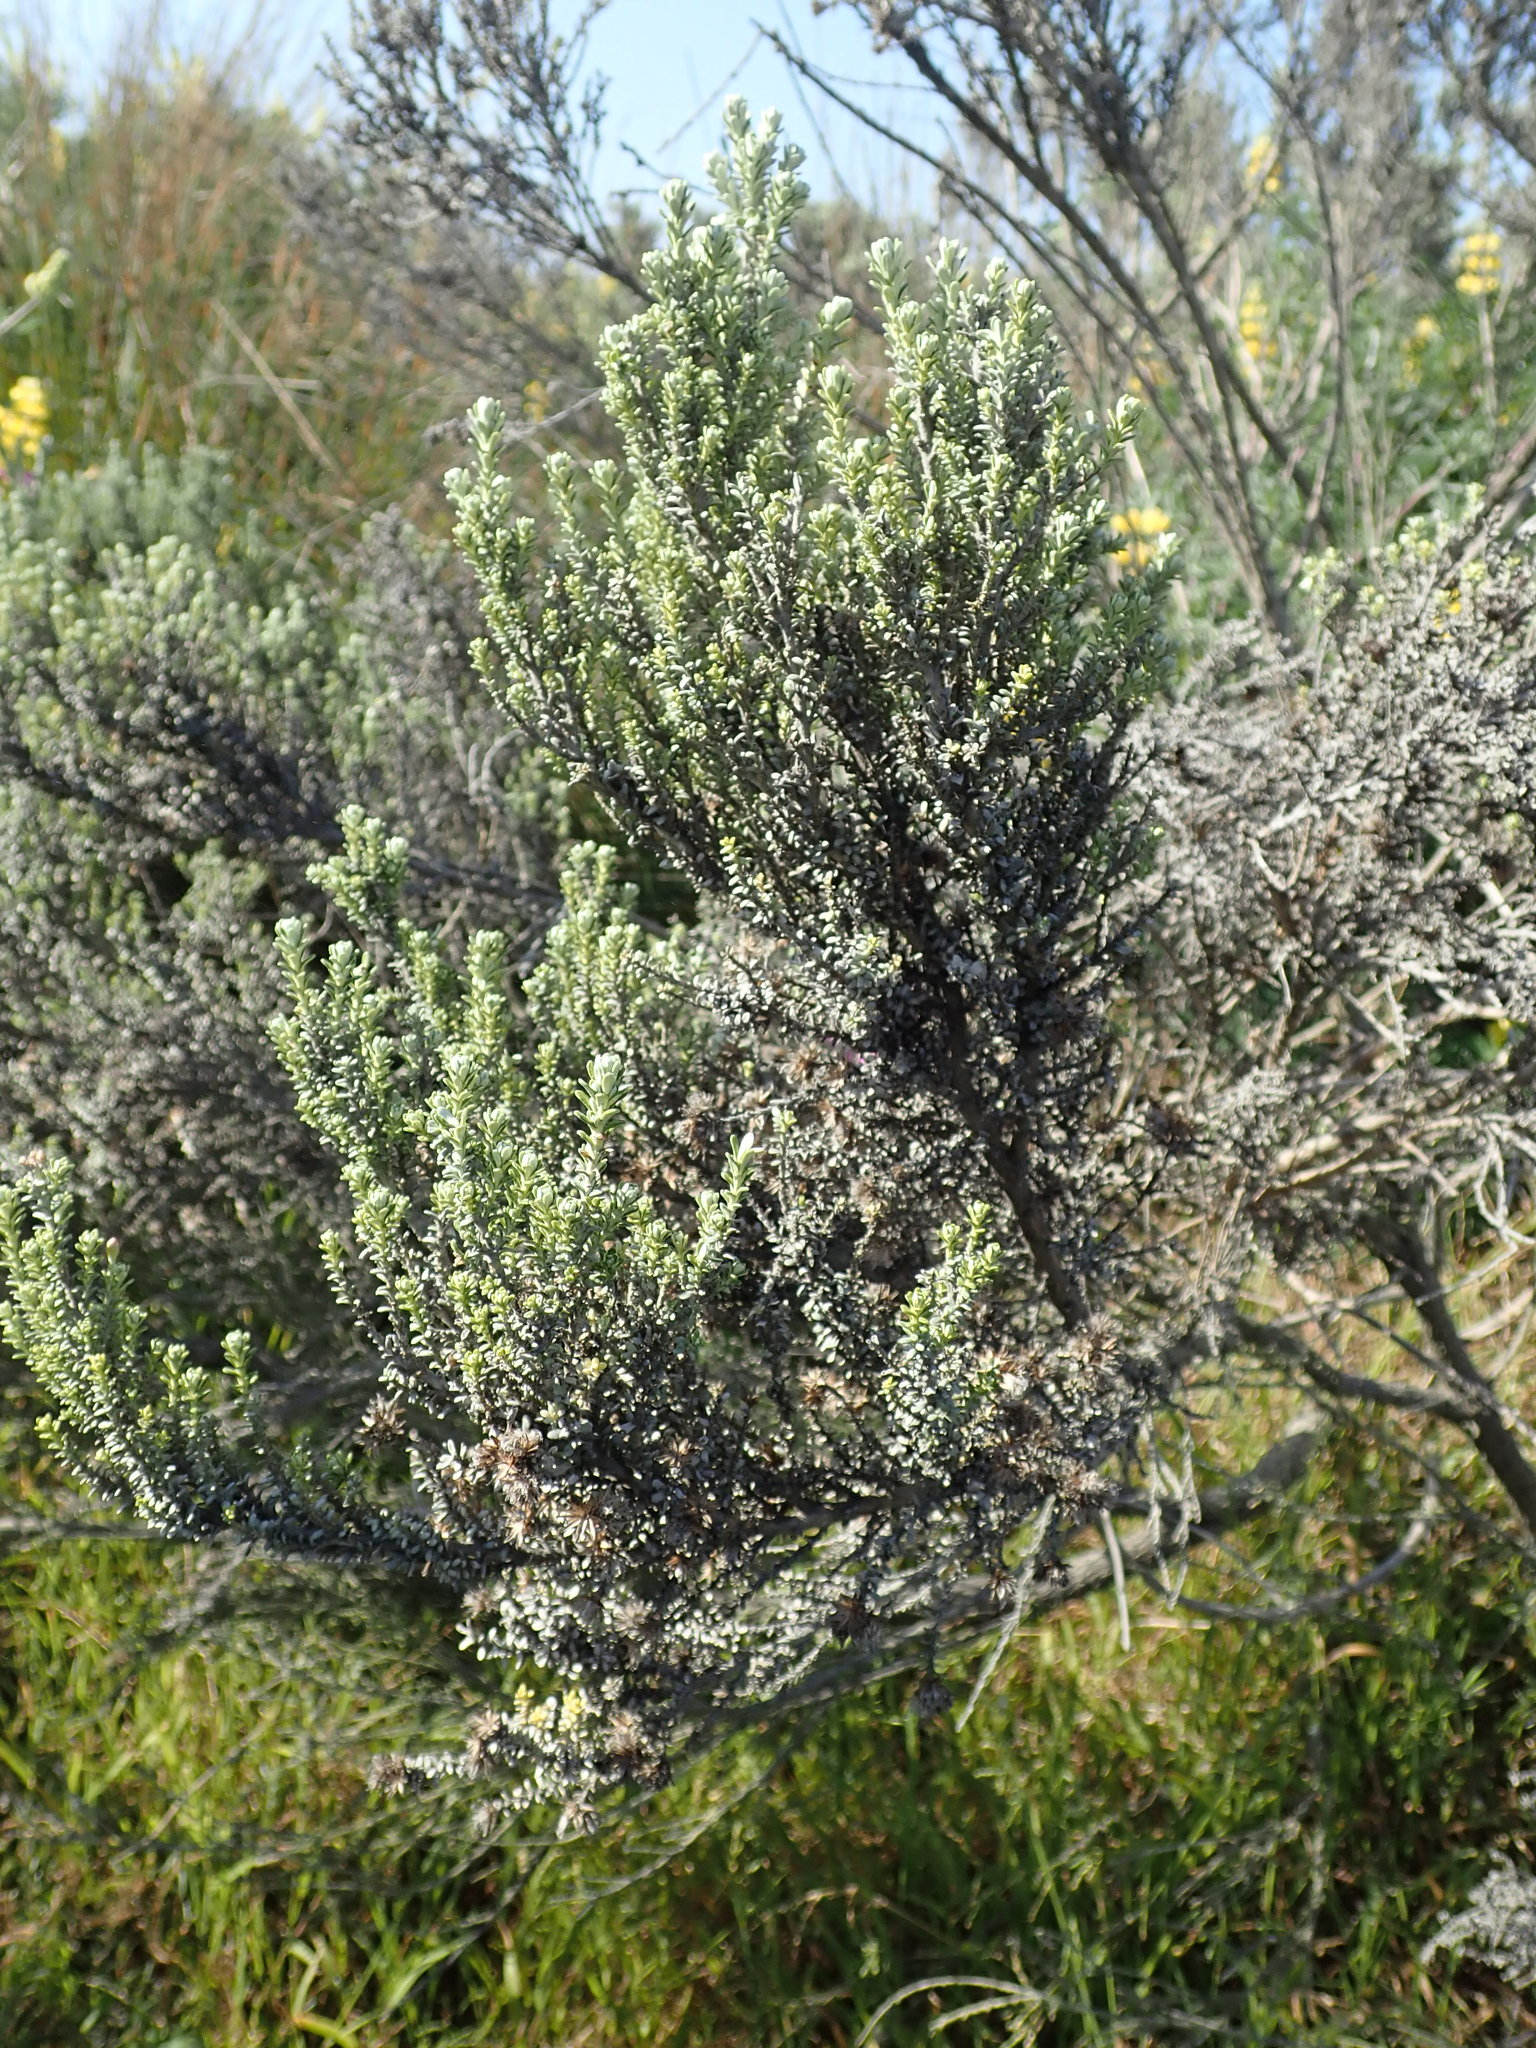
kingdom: Plantae
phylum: Tracheophyta
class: Magnoliopsida
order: Asterales
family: Asteraceae
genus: Ozothamnus
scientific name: Ozothamnus leptophyllus
